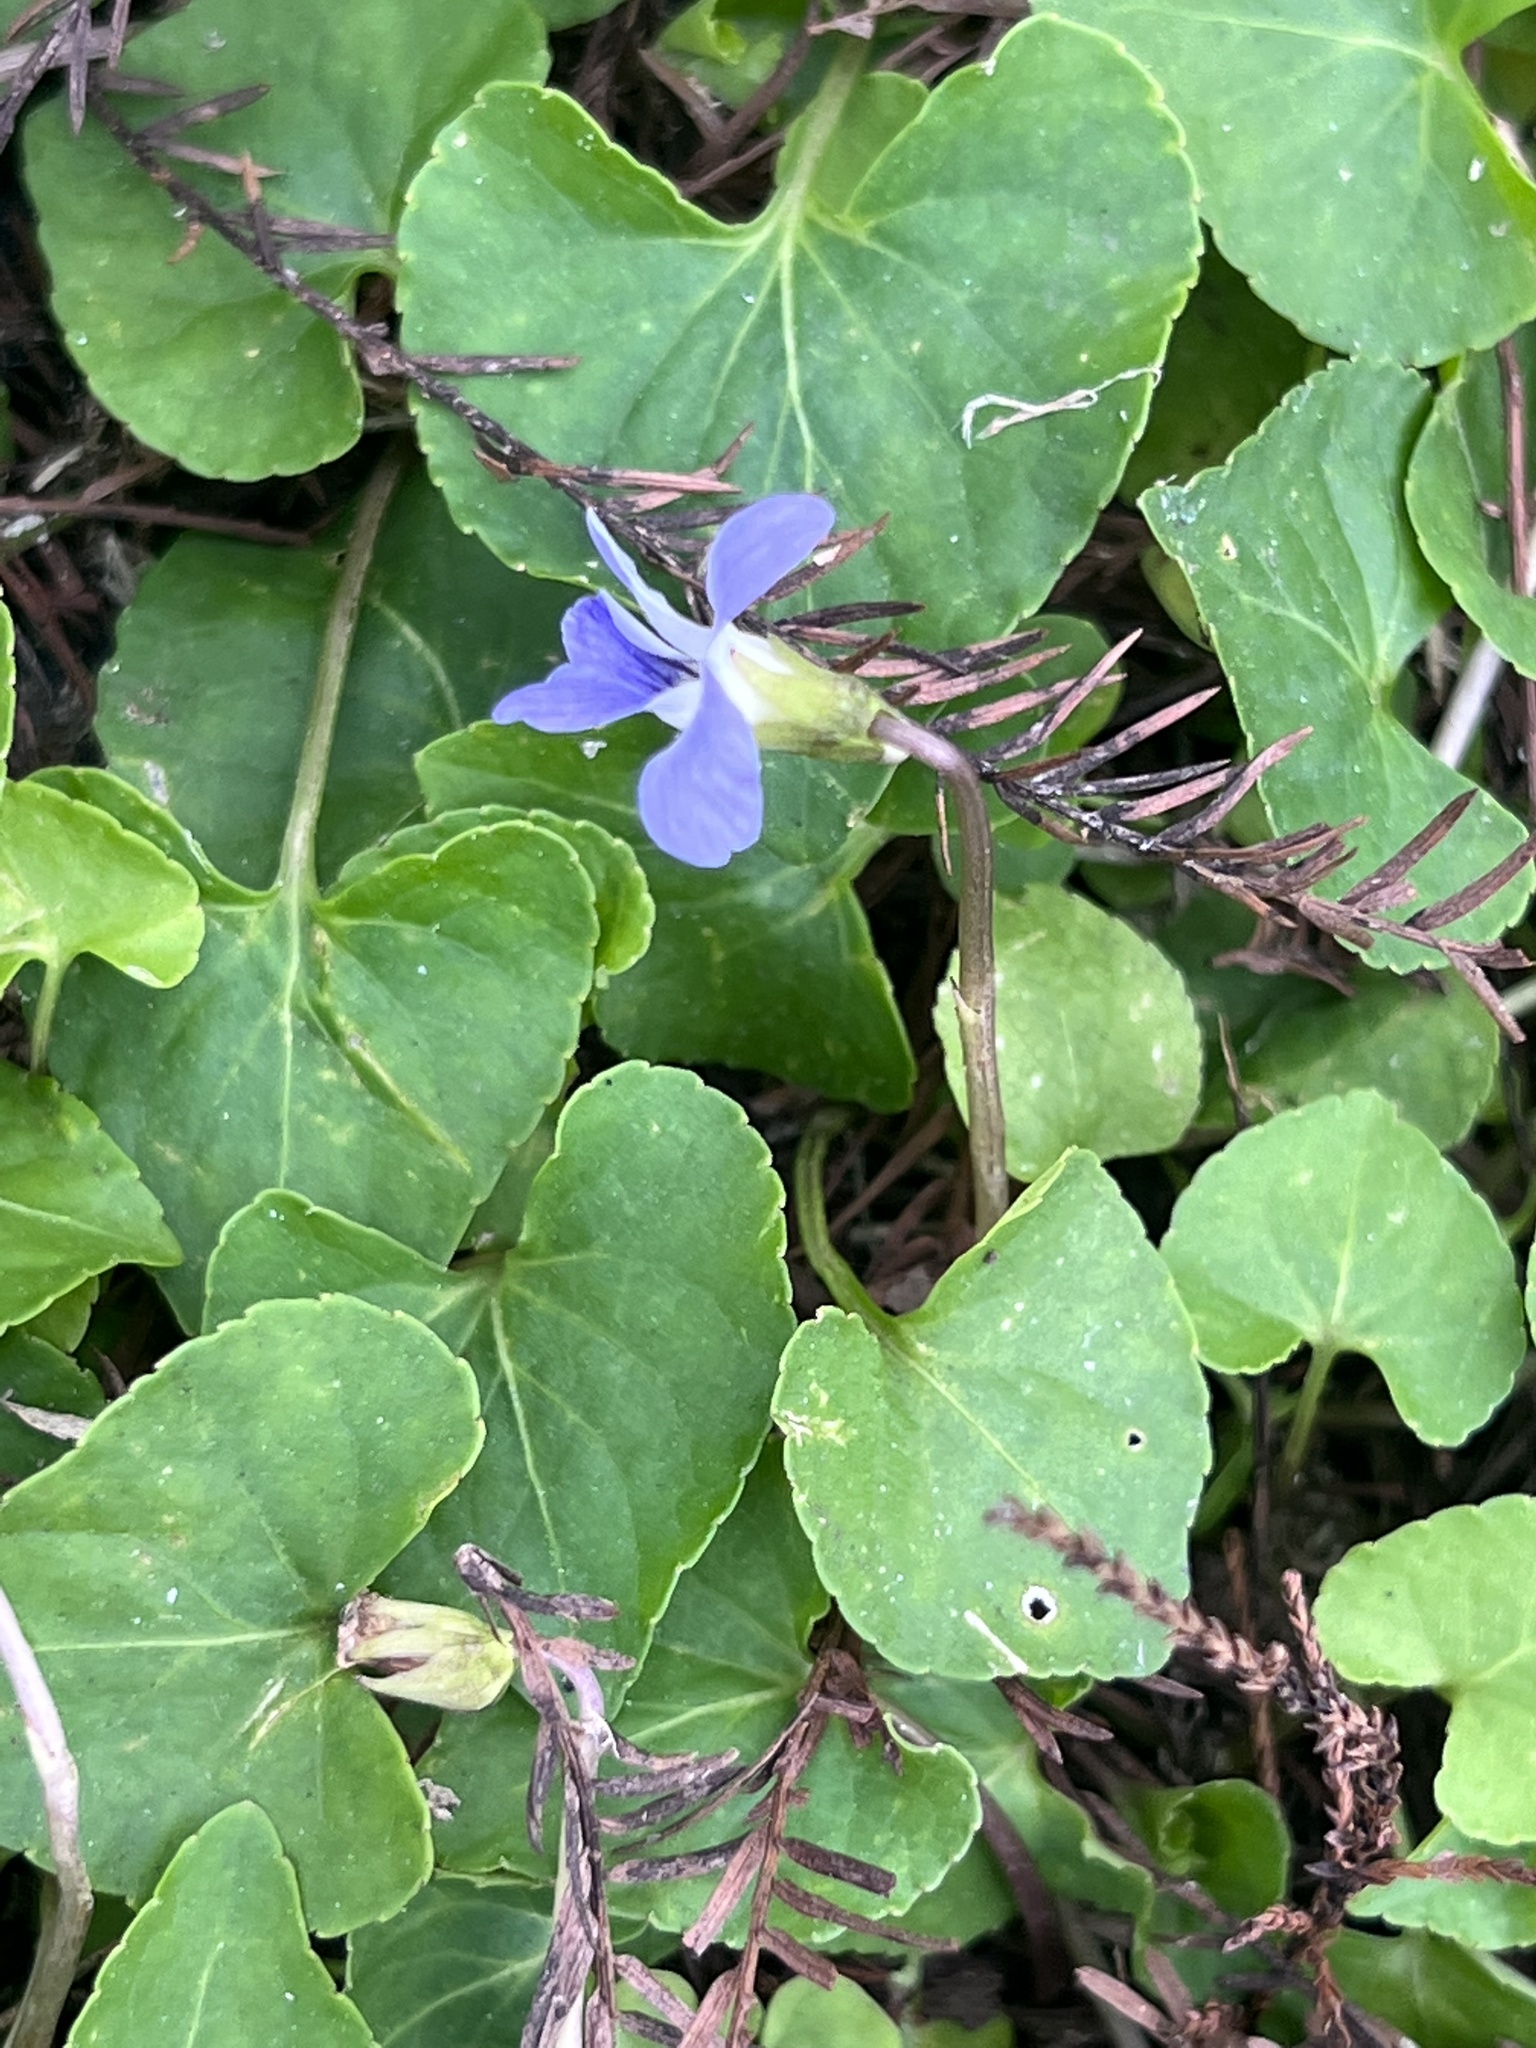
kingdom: Plantae
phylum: Tracheophyta
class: Magnoliopsida
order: Malpighiales
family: Violaceae
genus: Viola
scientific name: Viola sororia
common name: Dooryard violet
